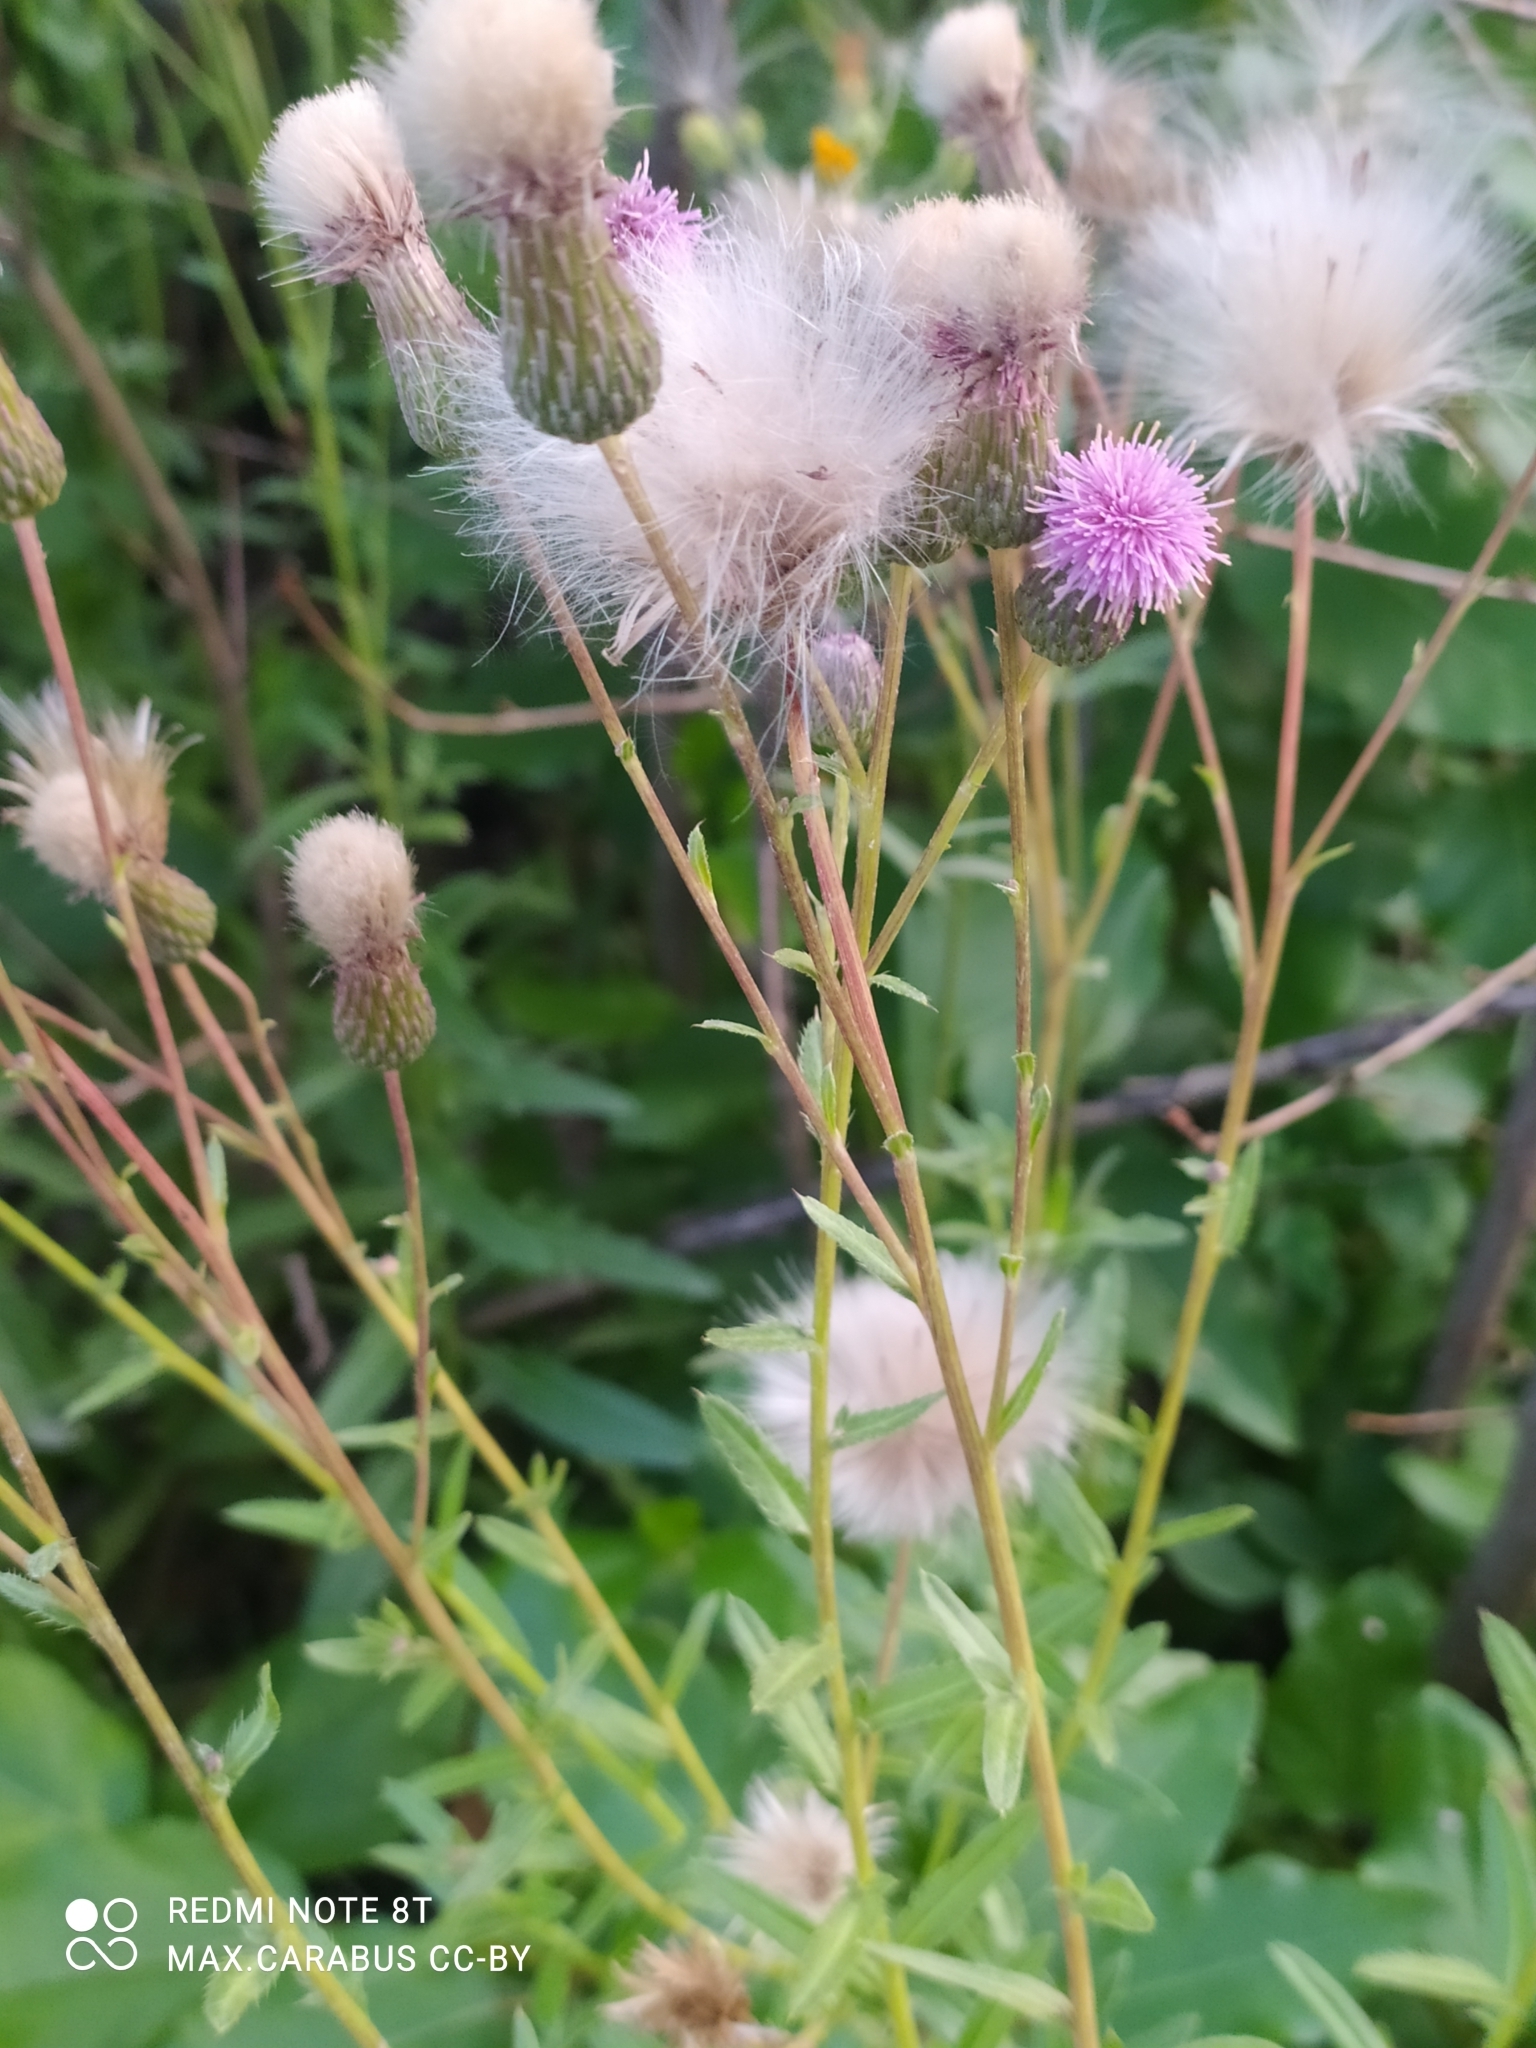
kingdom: Plantae
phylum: Tracheophyta
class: Magnoliopsida
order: Asterales
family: Asteraceae
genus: Cirsium
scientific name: Cirsium arvense
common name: Creeping thistle
